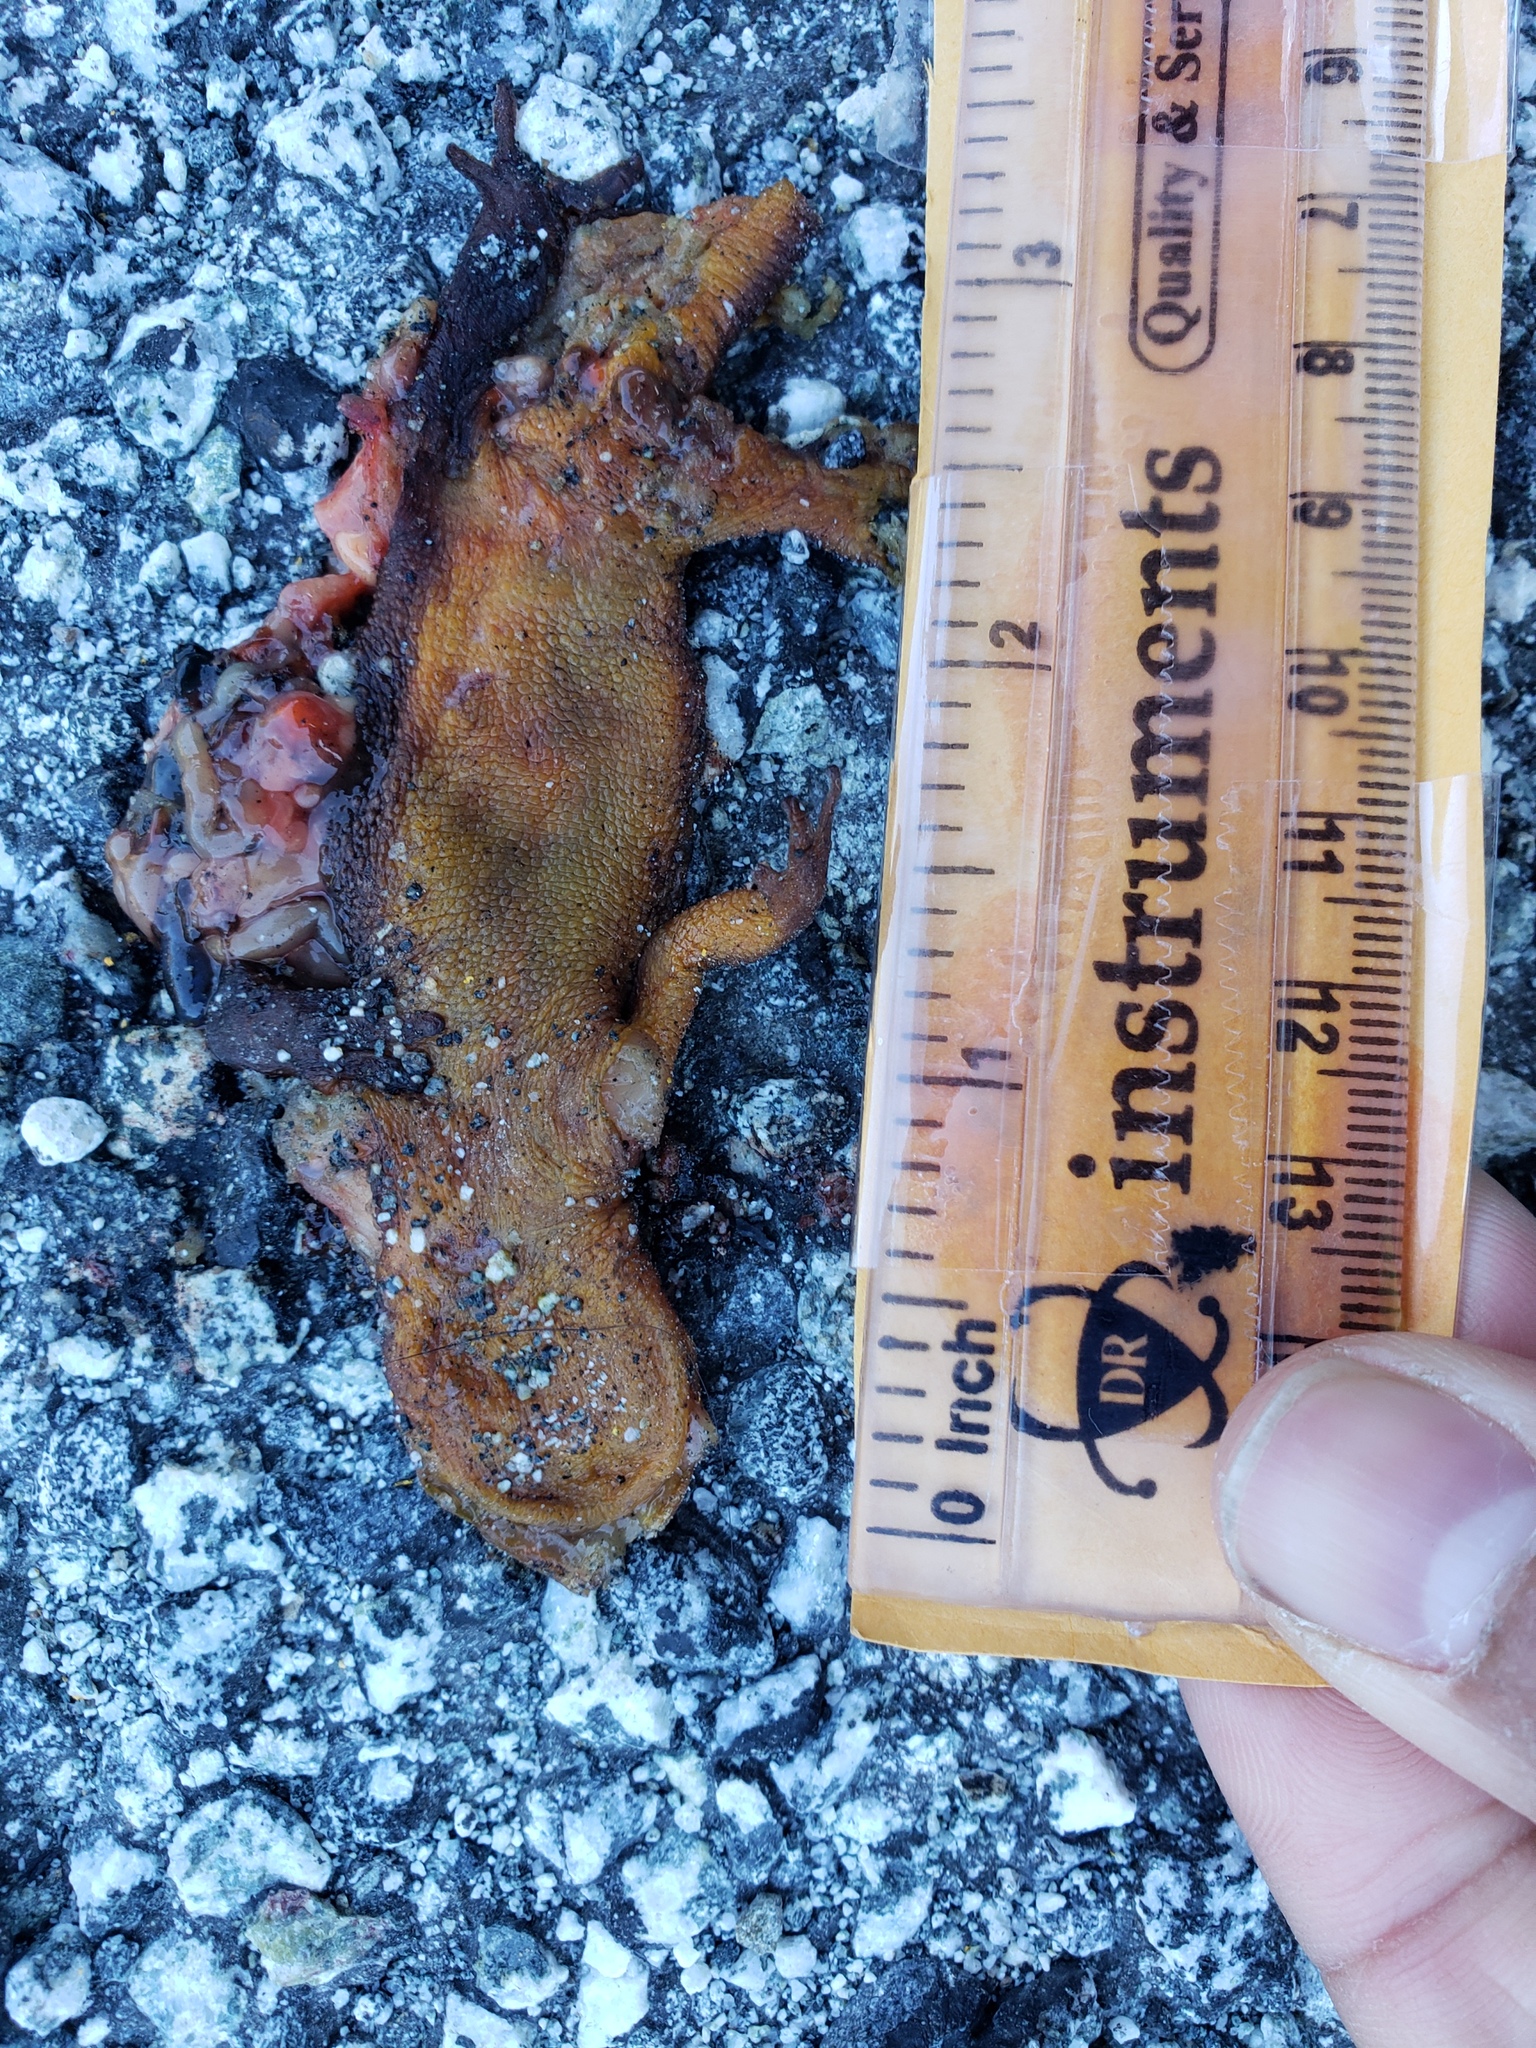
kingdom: Animalia
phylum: Chordata
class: Amphibia
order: Caudata
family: Salamandridae
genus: Taricha
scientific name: Taricha
